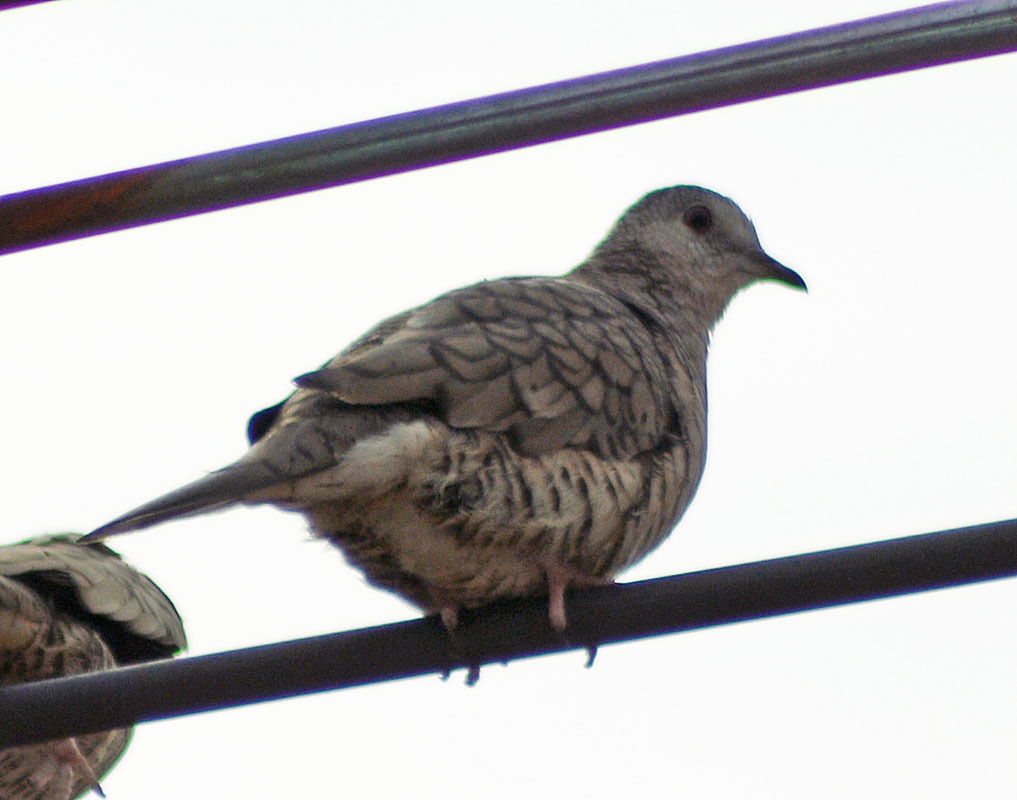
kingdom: Animalia
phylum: Chordata
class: Aves
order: Columbiformes
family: Columbidae
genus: Columbina
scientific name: Columbina inca
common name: Inca dove
